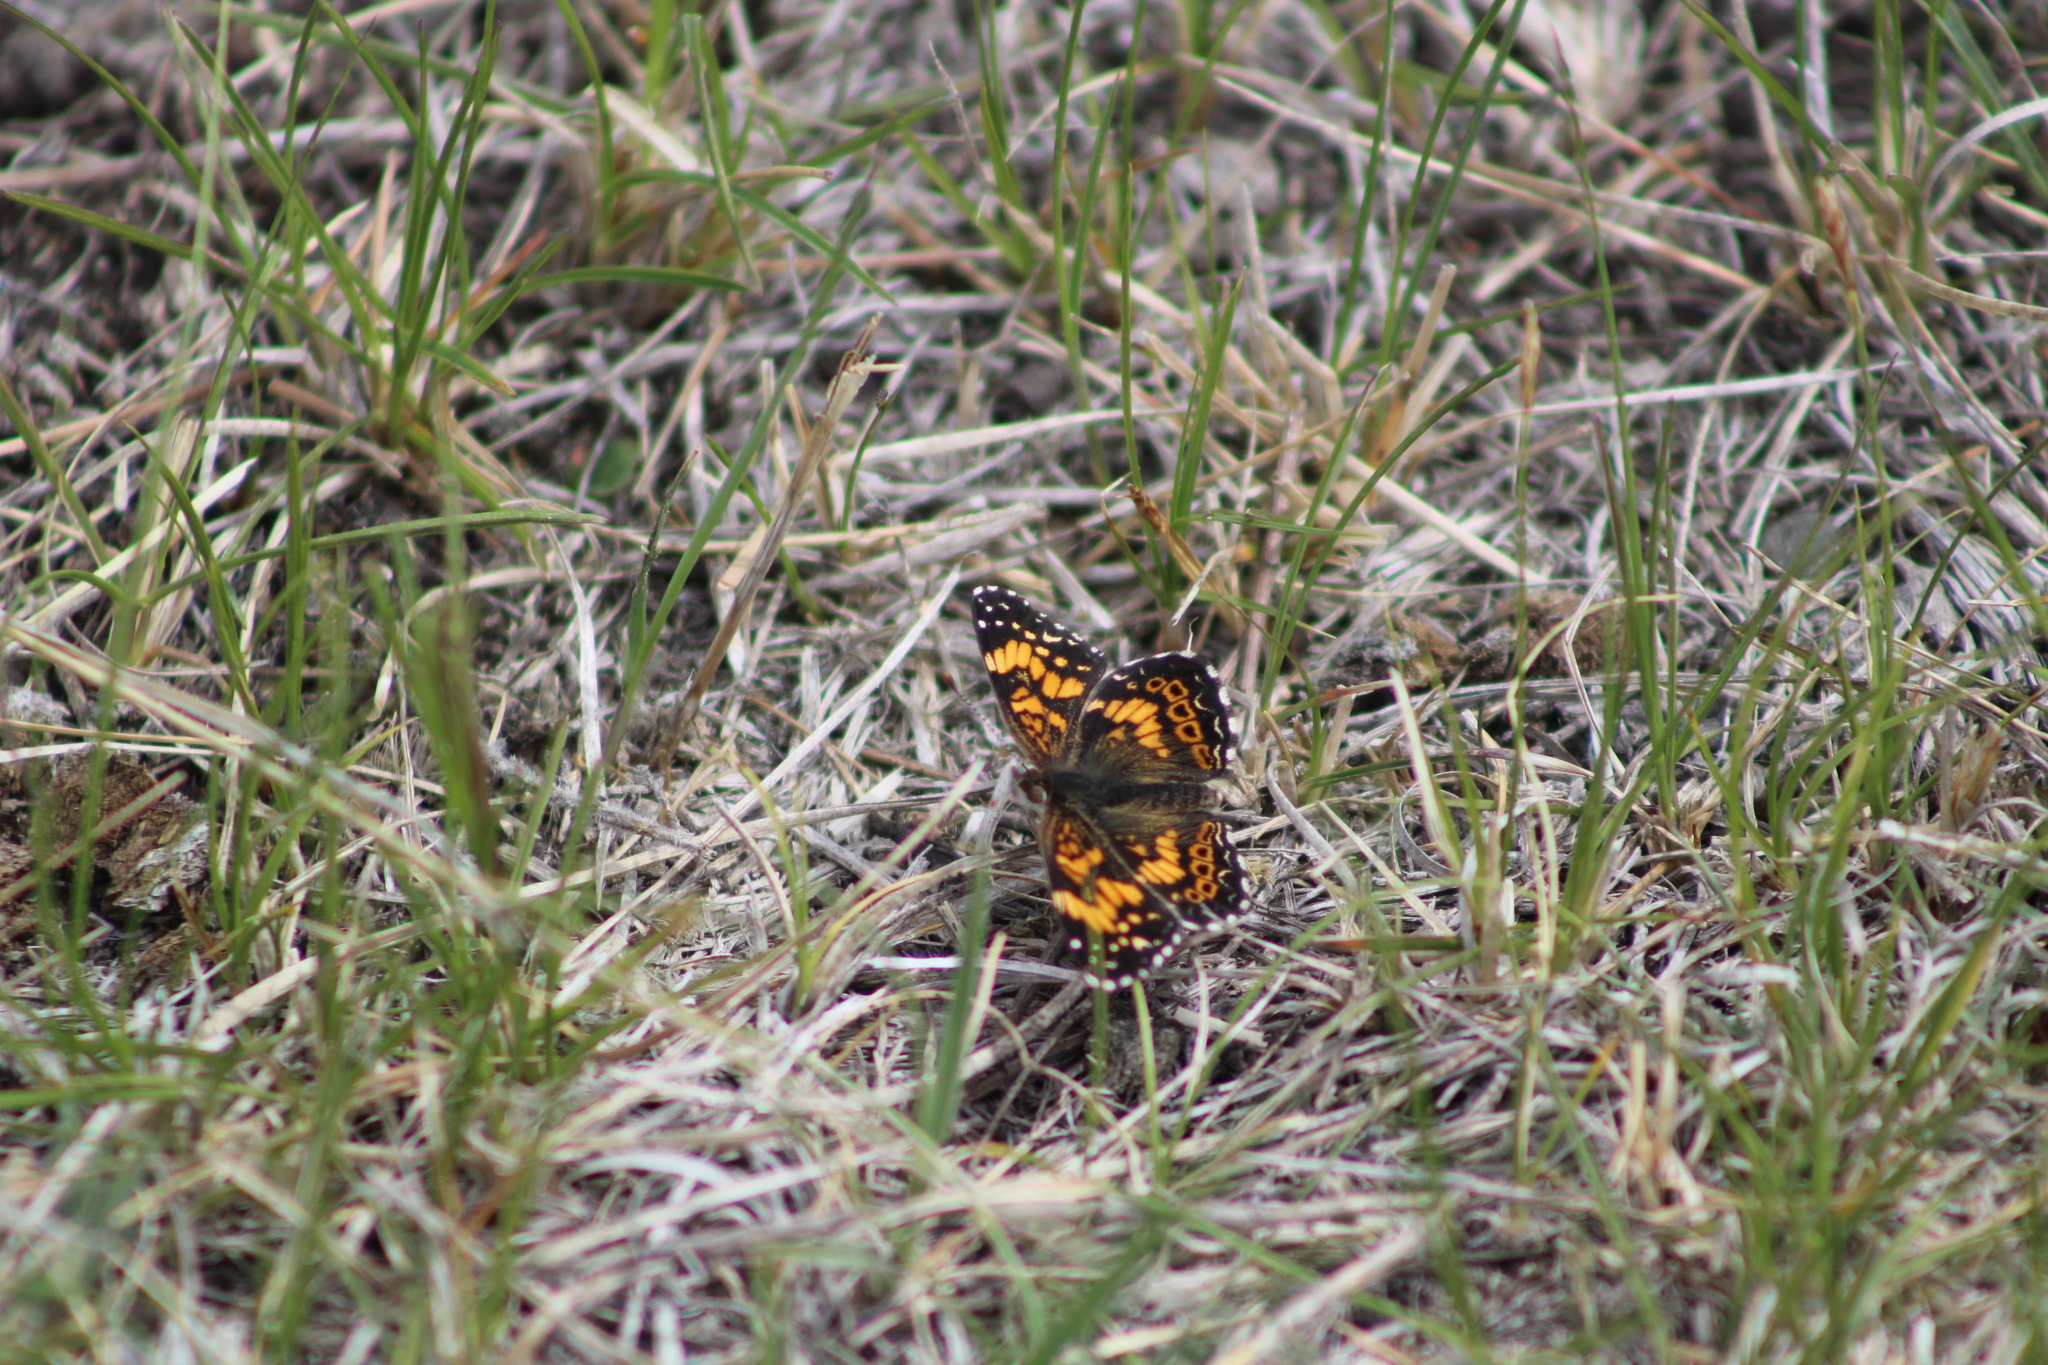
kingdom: Animalia
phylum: Arthropoda
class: Insecta
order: Lepidoptera
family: Nymphalidae
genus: Chlosyne
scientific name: Chlosyne gorgone
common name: Gorgone checkerspot
